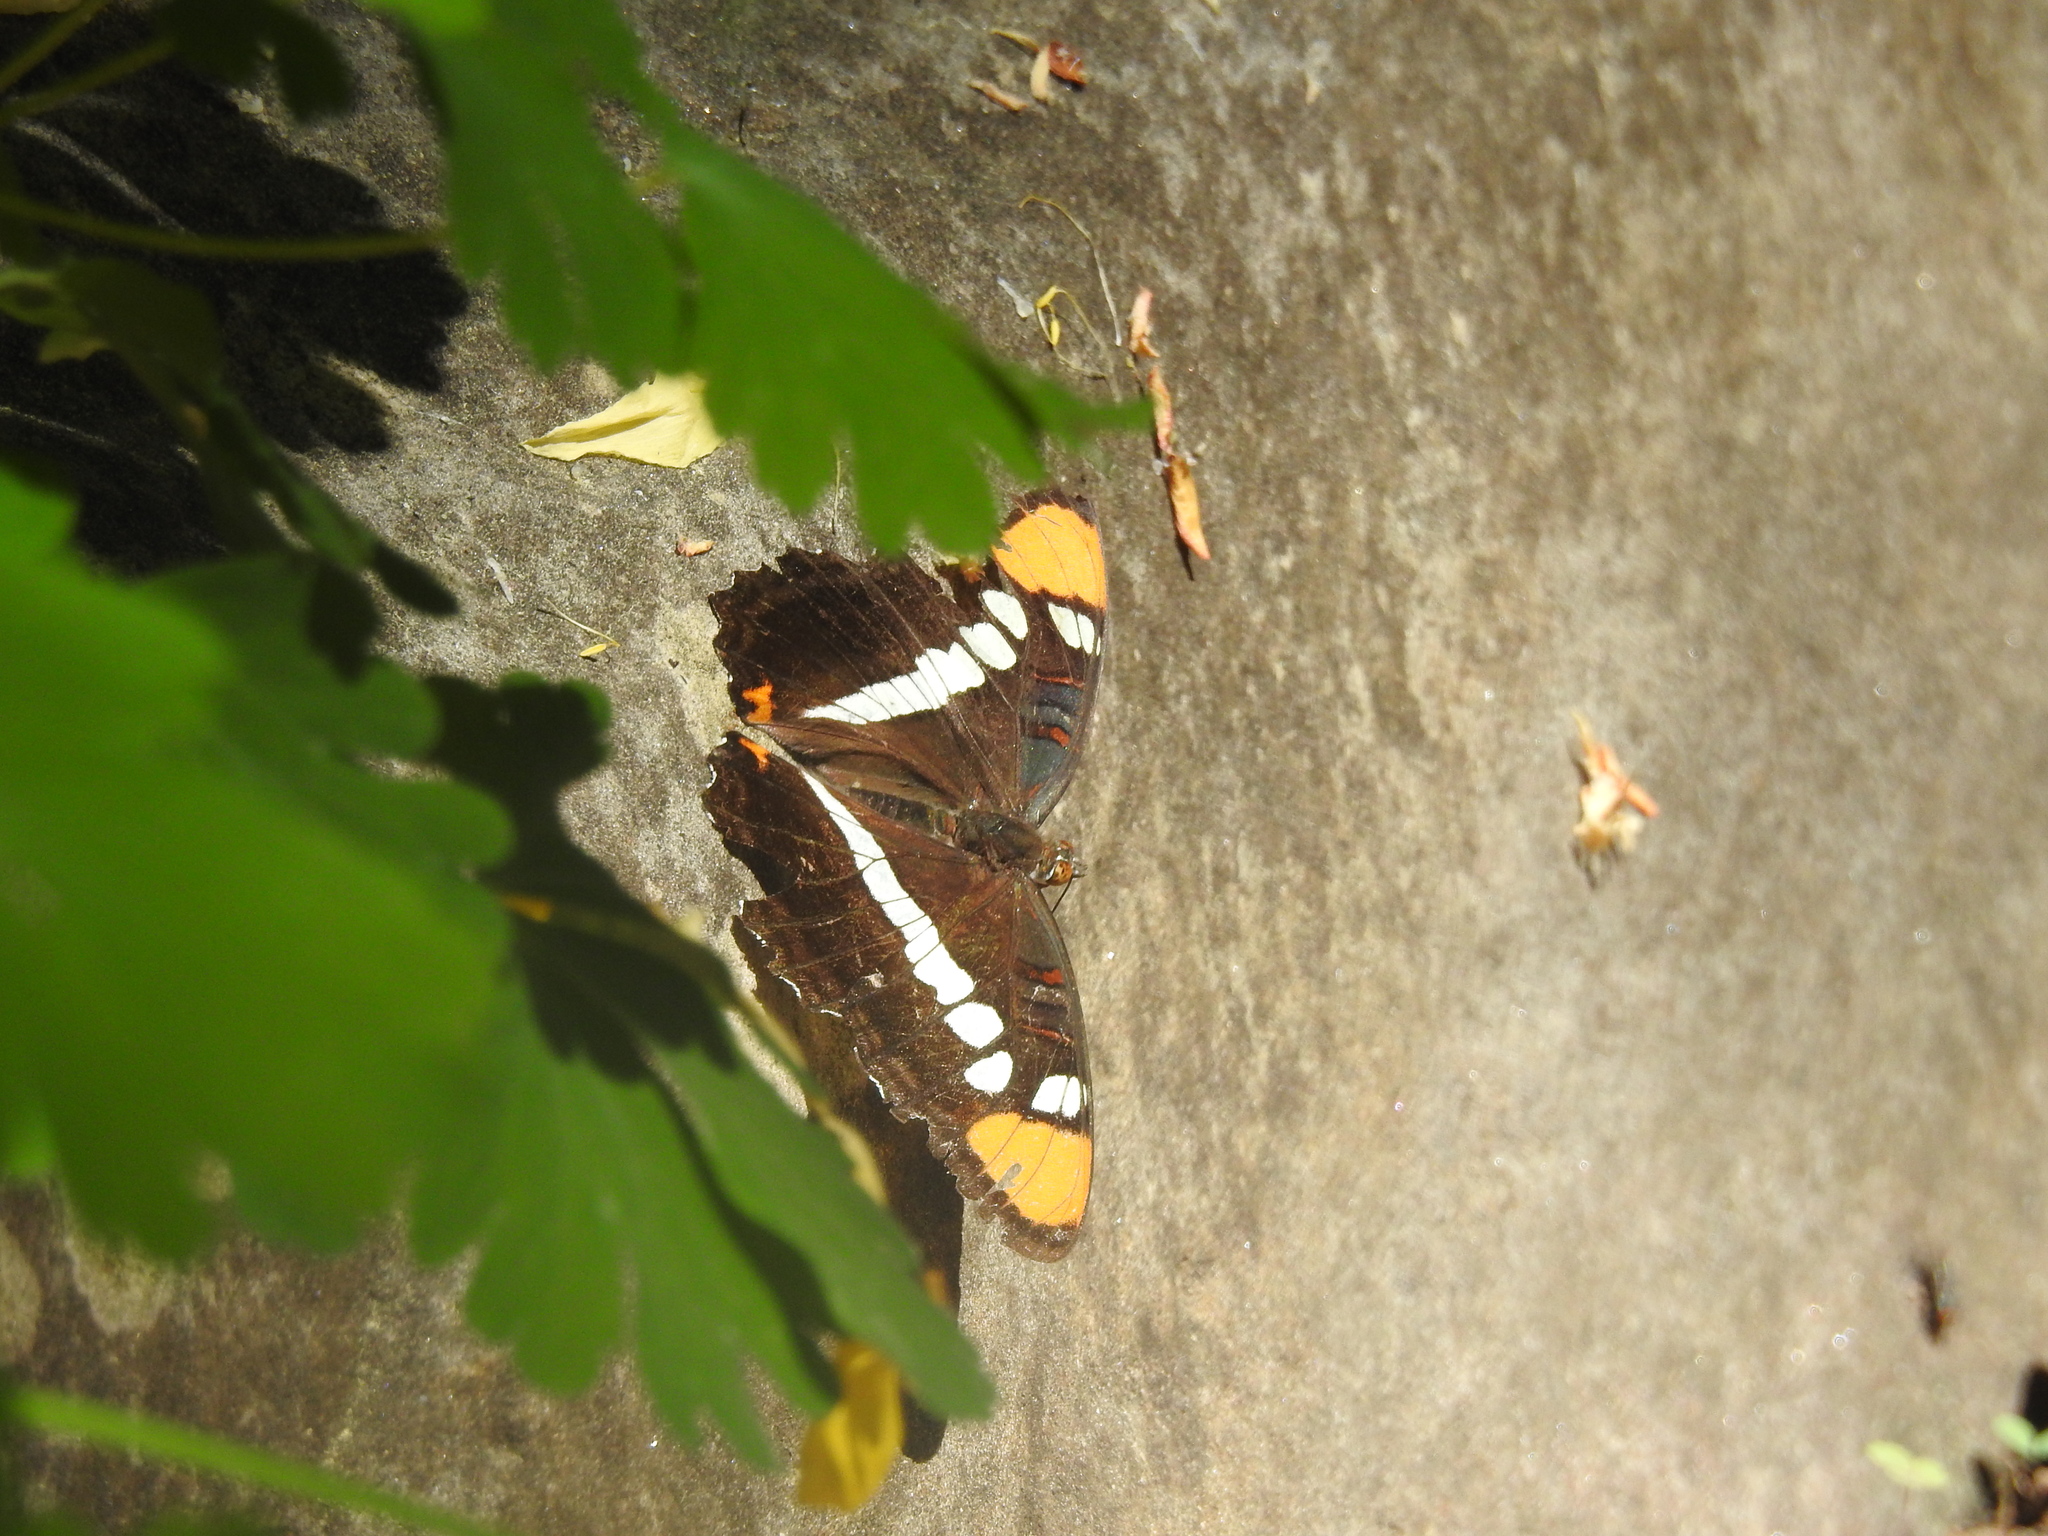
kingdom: Animalia
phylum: Arthropoda
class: Insecta
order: Lepidoptera
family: Nymphalidae
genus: Limenitis
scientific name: Limenitis bredowii
